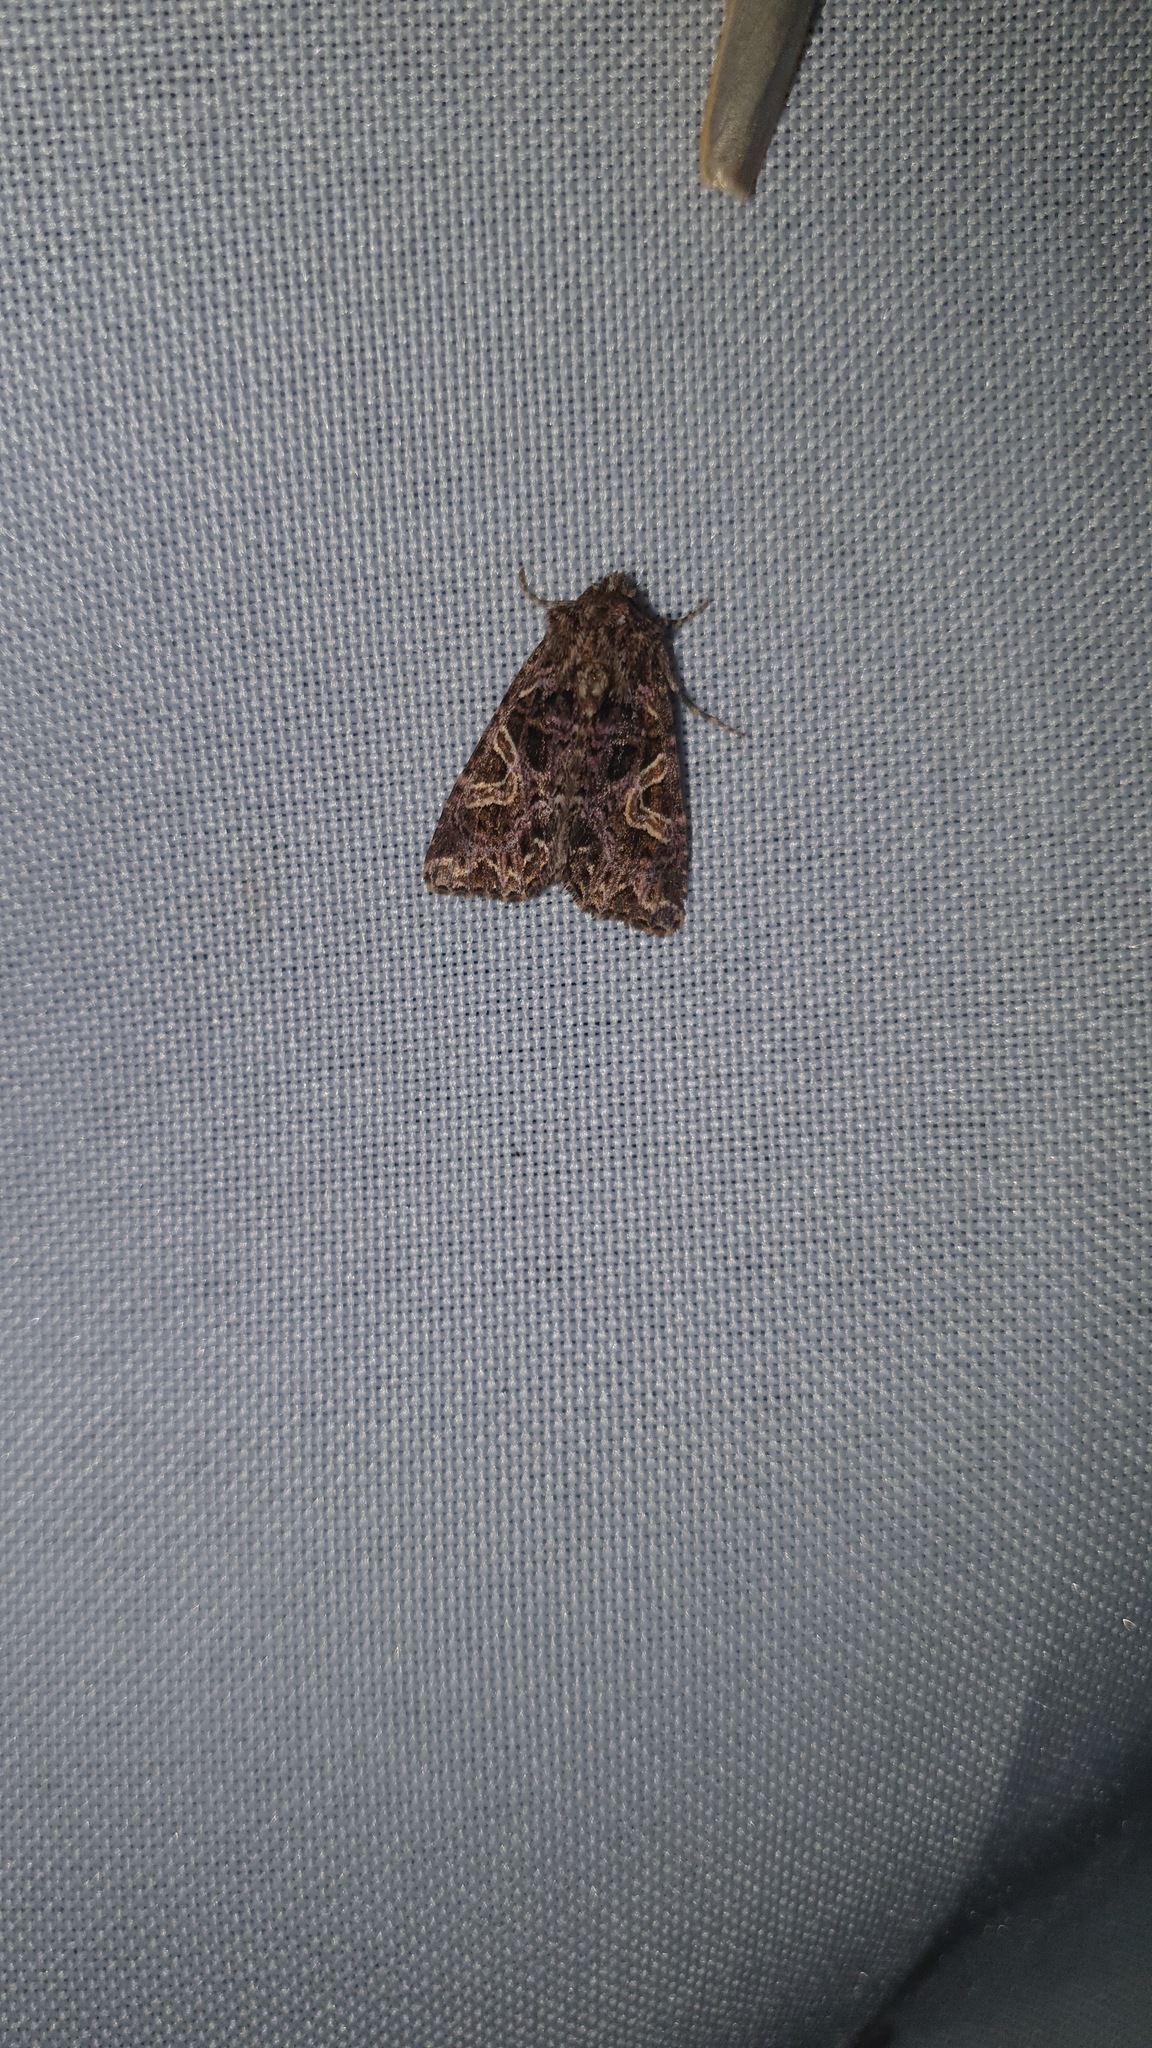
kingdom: Animalia
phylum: Arthropoda
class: Insecta
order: Lepidoptera
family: Noctuidae
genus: Sideridis
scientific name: Sideridis rivularis
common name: Campion
